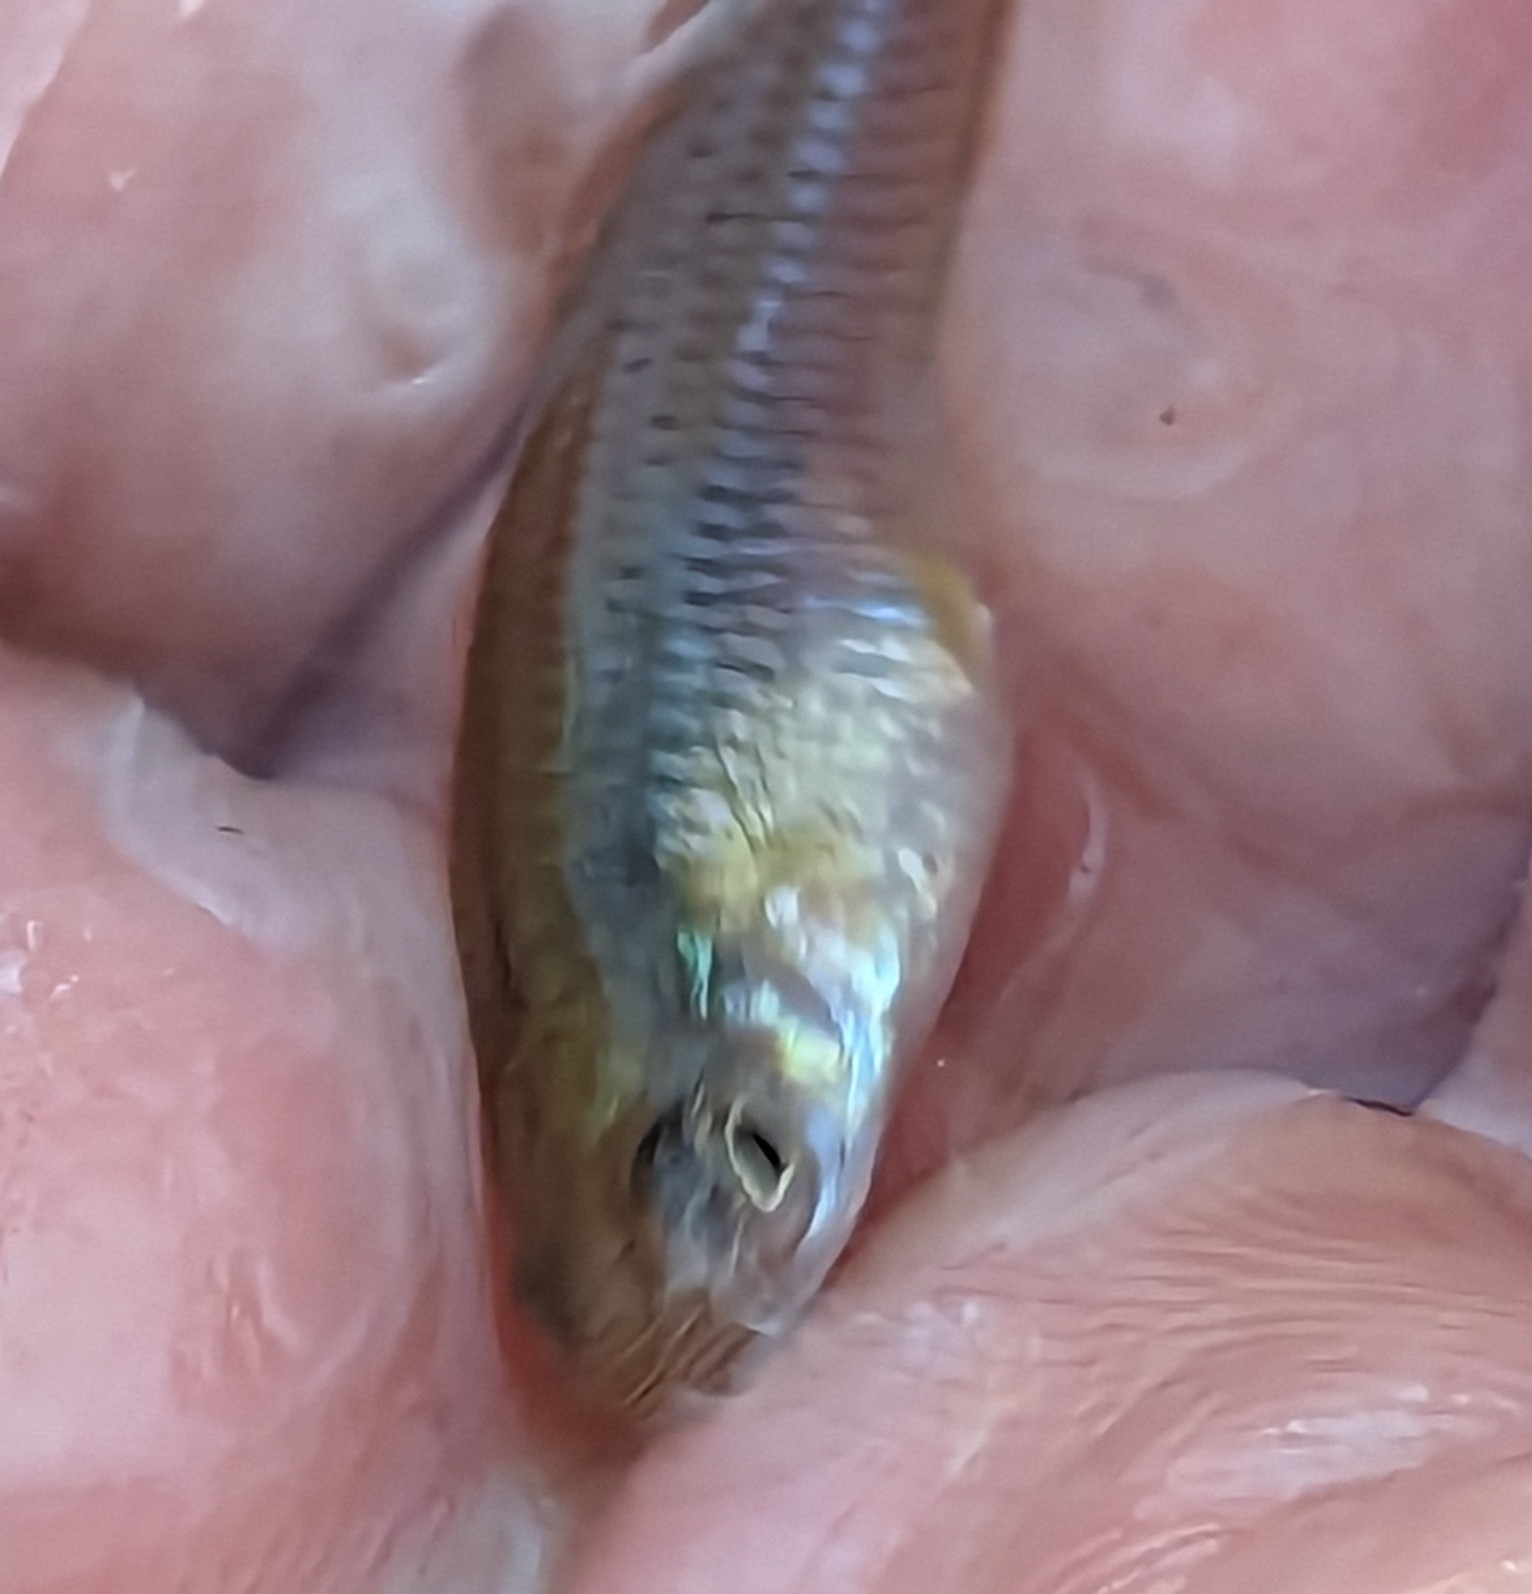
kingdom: Animalia
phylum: Chordata
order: Cyprinodontiformes
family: Poeciliidae
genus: Gambusia
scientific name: Gambusia affinis
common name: Mosquitofish
